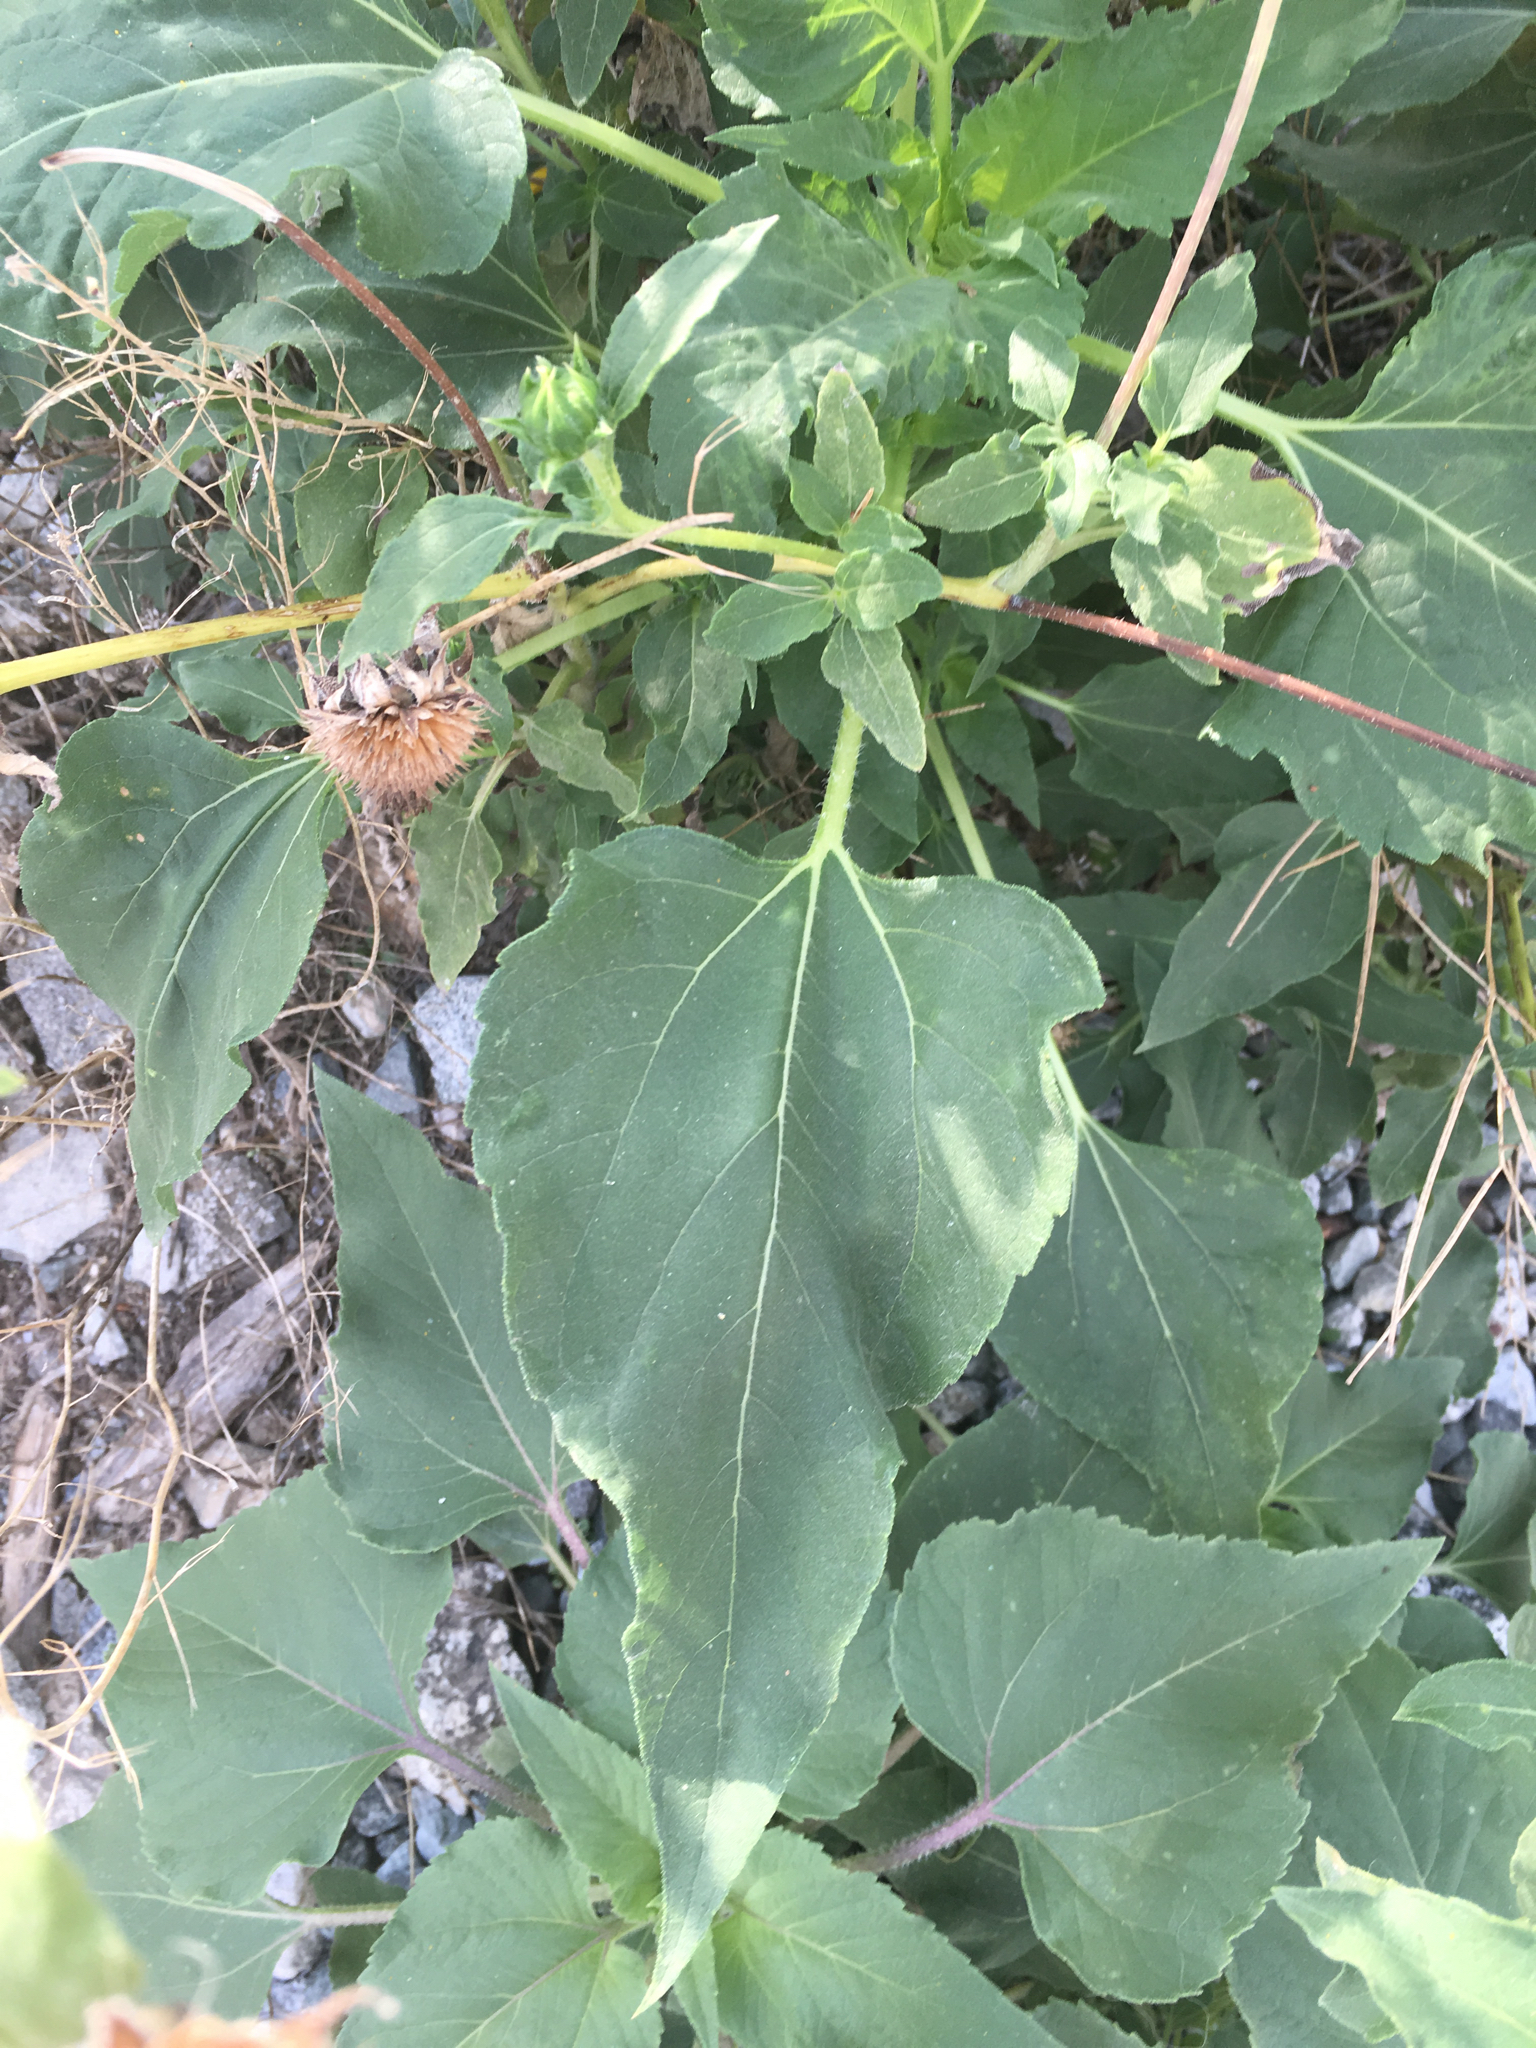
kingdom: Plantae
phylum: Tracheophyta
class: Magnoliopsida
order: Asterales
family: Asteraceae
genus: Helianthus
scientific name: Helianthus annuus
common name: Sunflower
